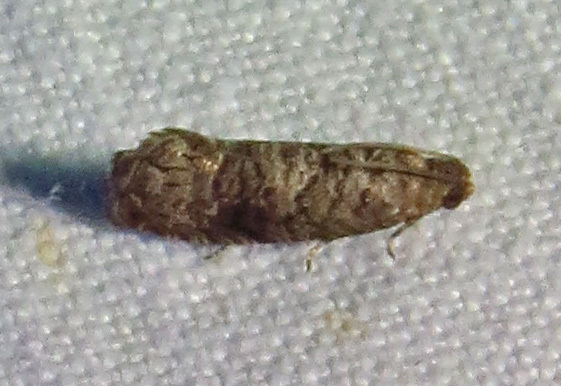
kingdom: Animalia
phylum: Arthropoda
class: Insecta
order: Lepidoptera
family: Noctuidae
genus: Aspila
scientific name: Aspila
